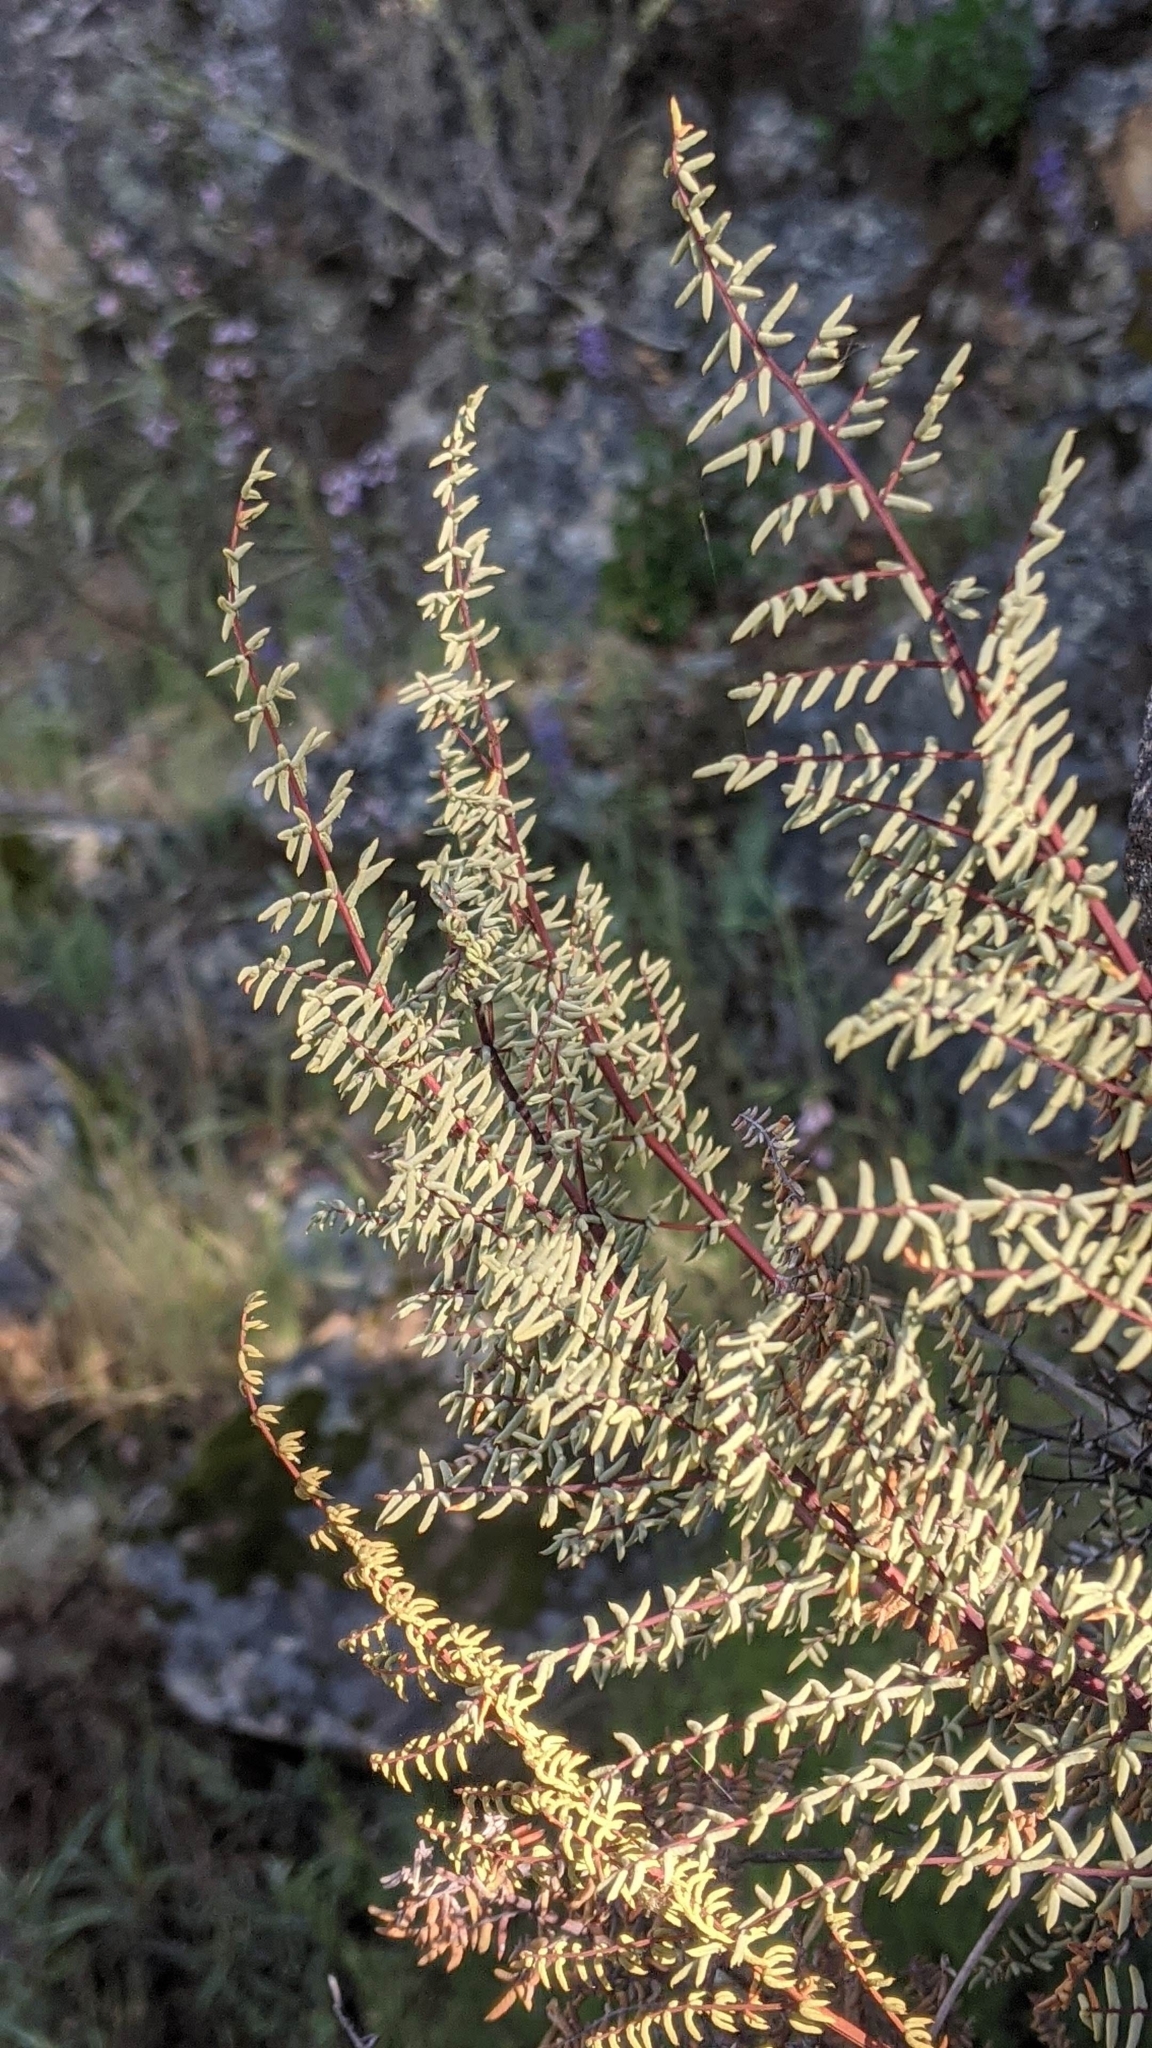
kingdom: Plantae
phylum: Tracheophyta
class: Polypodiopsida
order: Polypodiales
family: Pteridaceae
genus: Pellaea
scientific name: Pellaea mucronata
